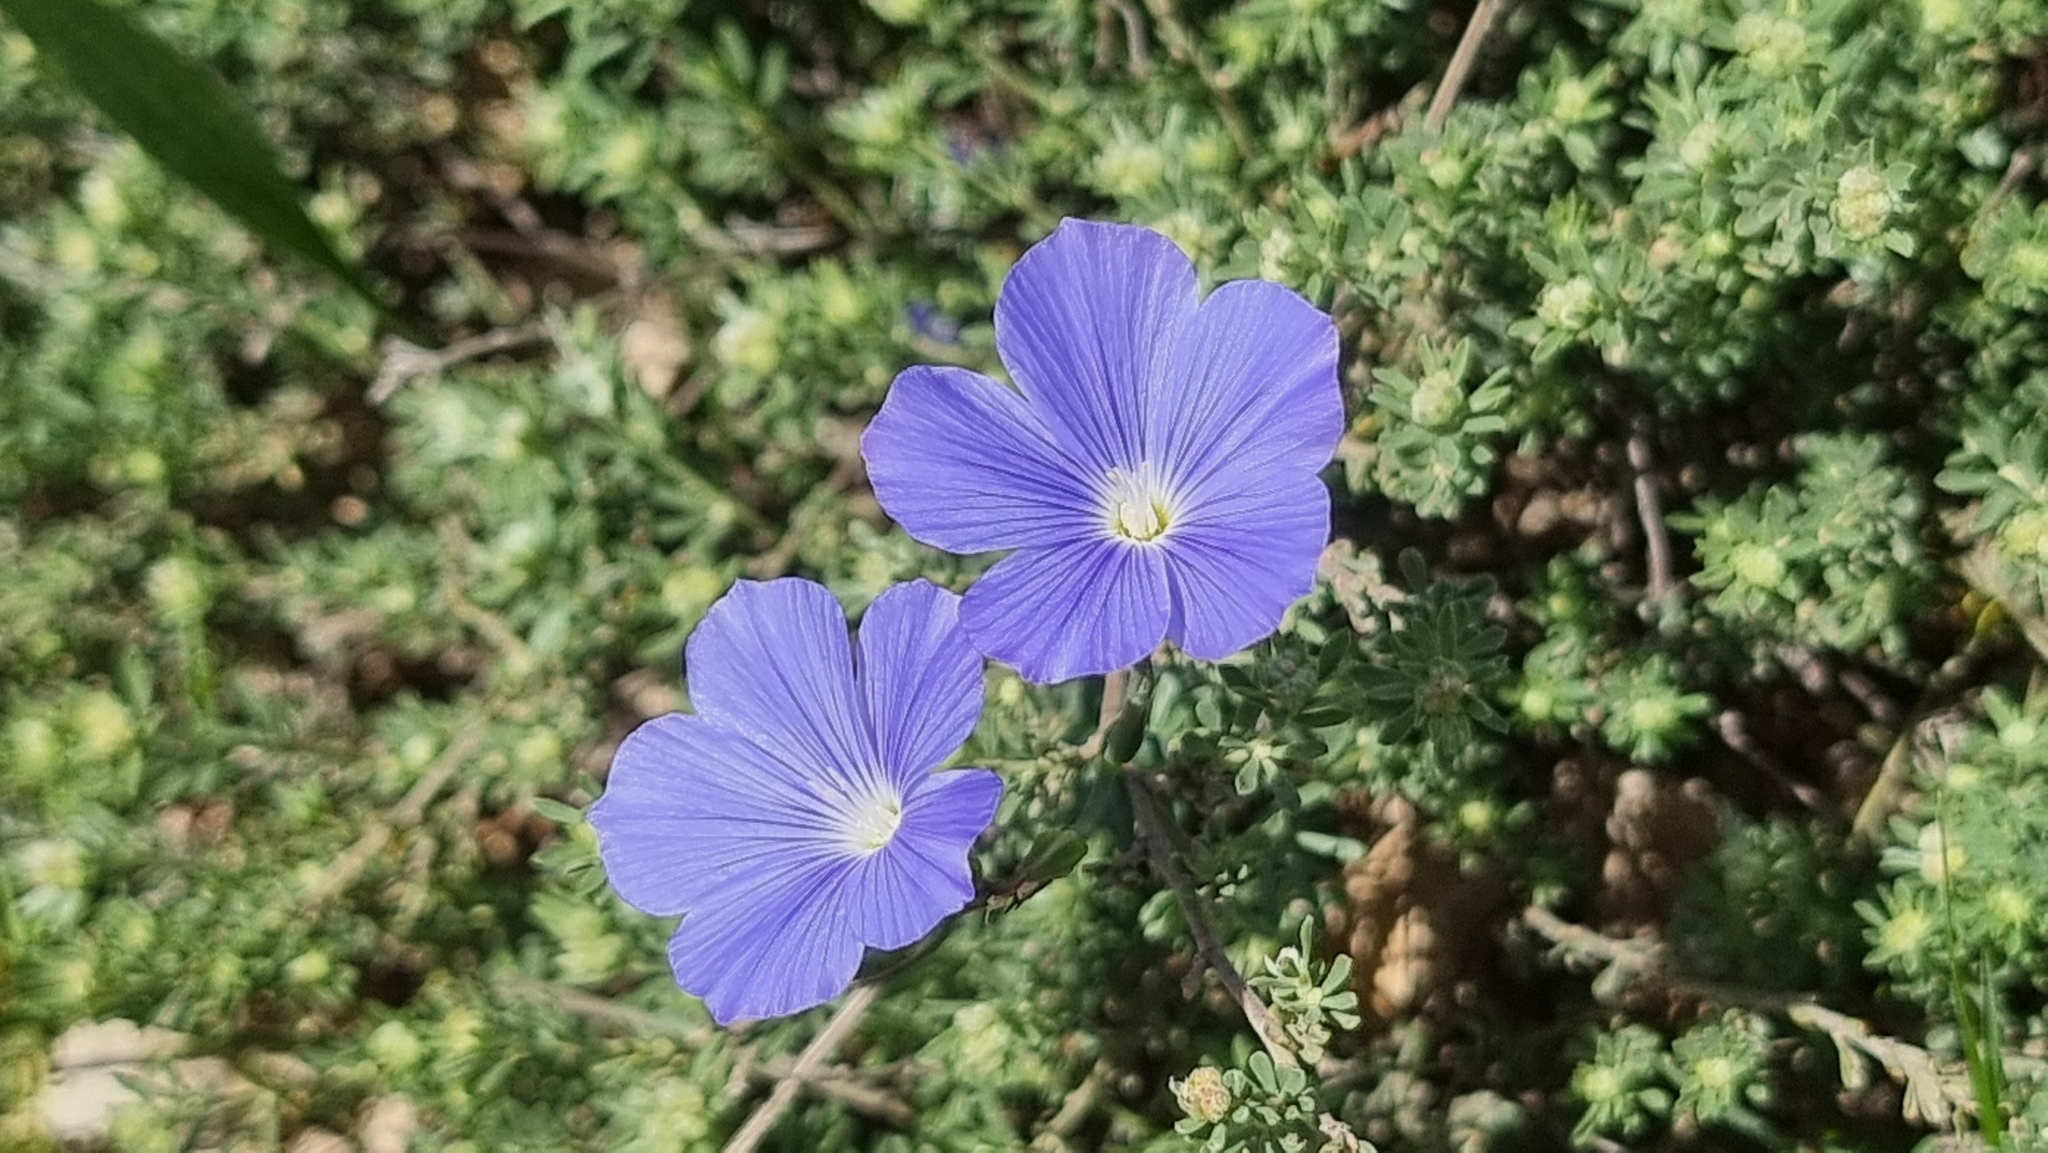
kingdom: Plantae
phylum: Tracheophyta
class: Magnoliopsida
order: Malpighiales
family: Linaceae
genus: Linum
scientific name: Linum narbonense
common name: Flax
